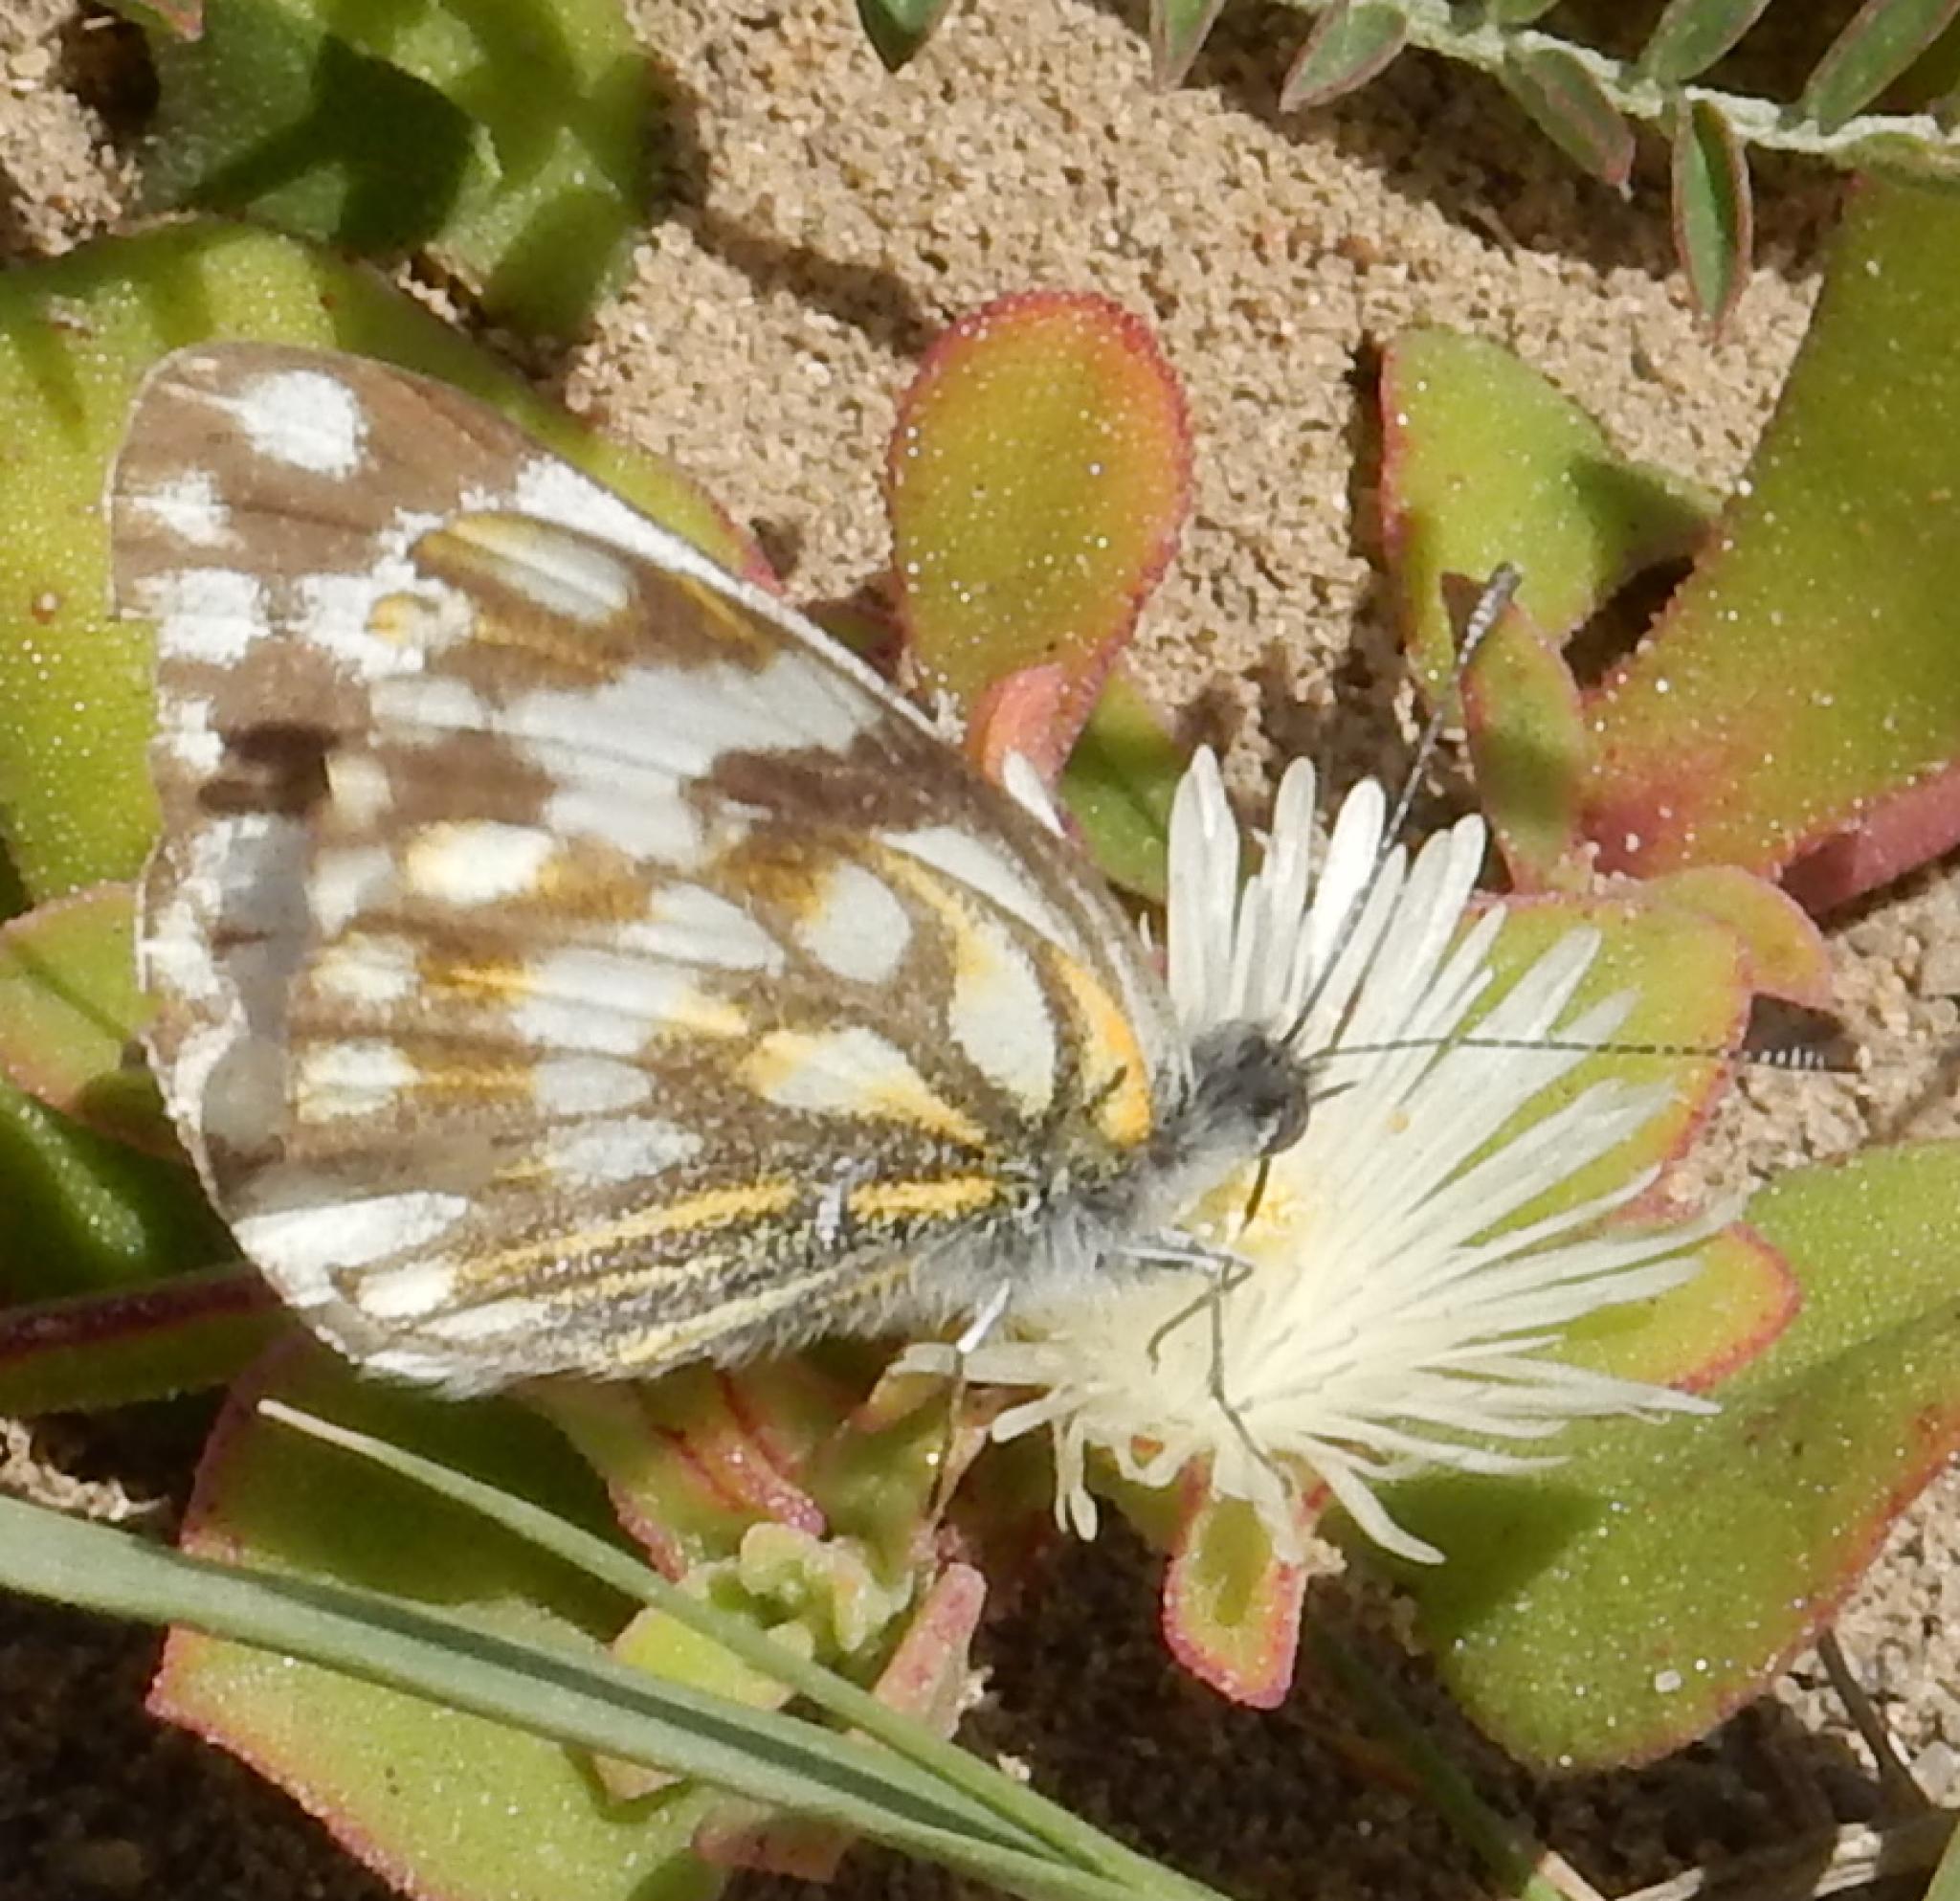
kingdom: Animalia
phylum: Arthropoda
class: Insecta
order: Lepidoptera
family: Pieridae
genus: Pontia
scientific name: Pontia helice
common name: Meadow white
